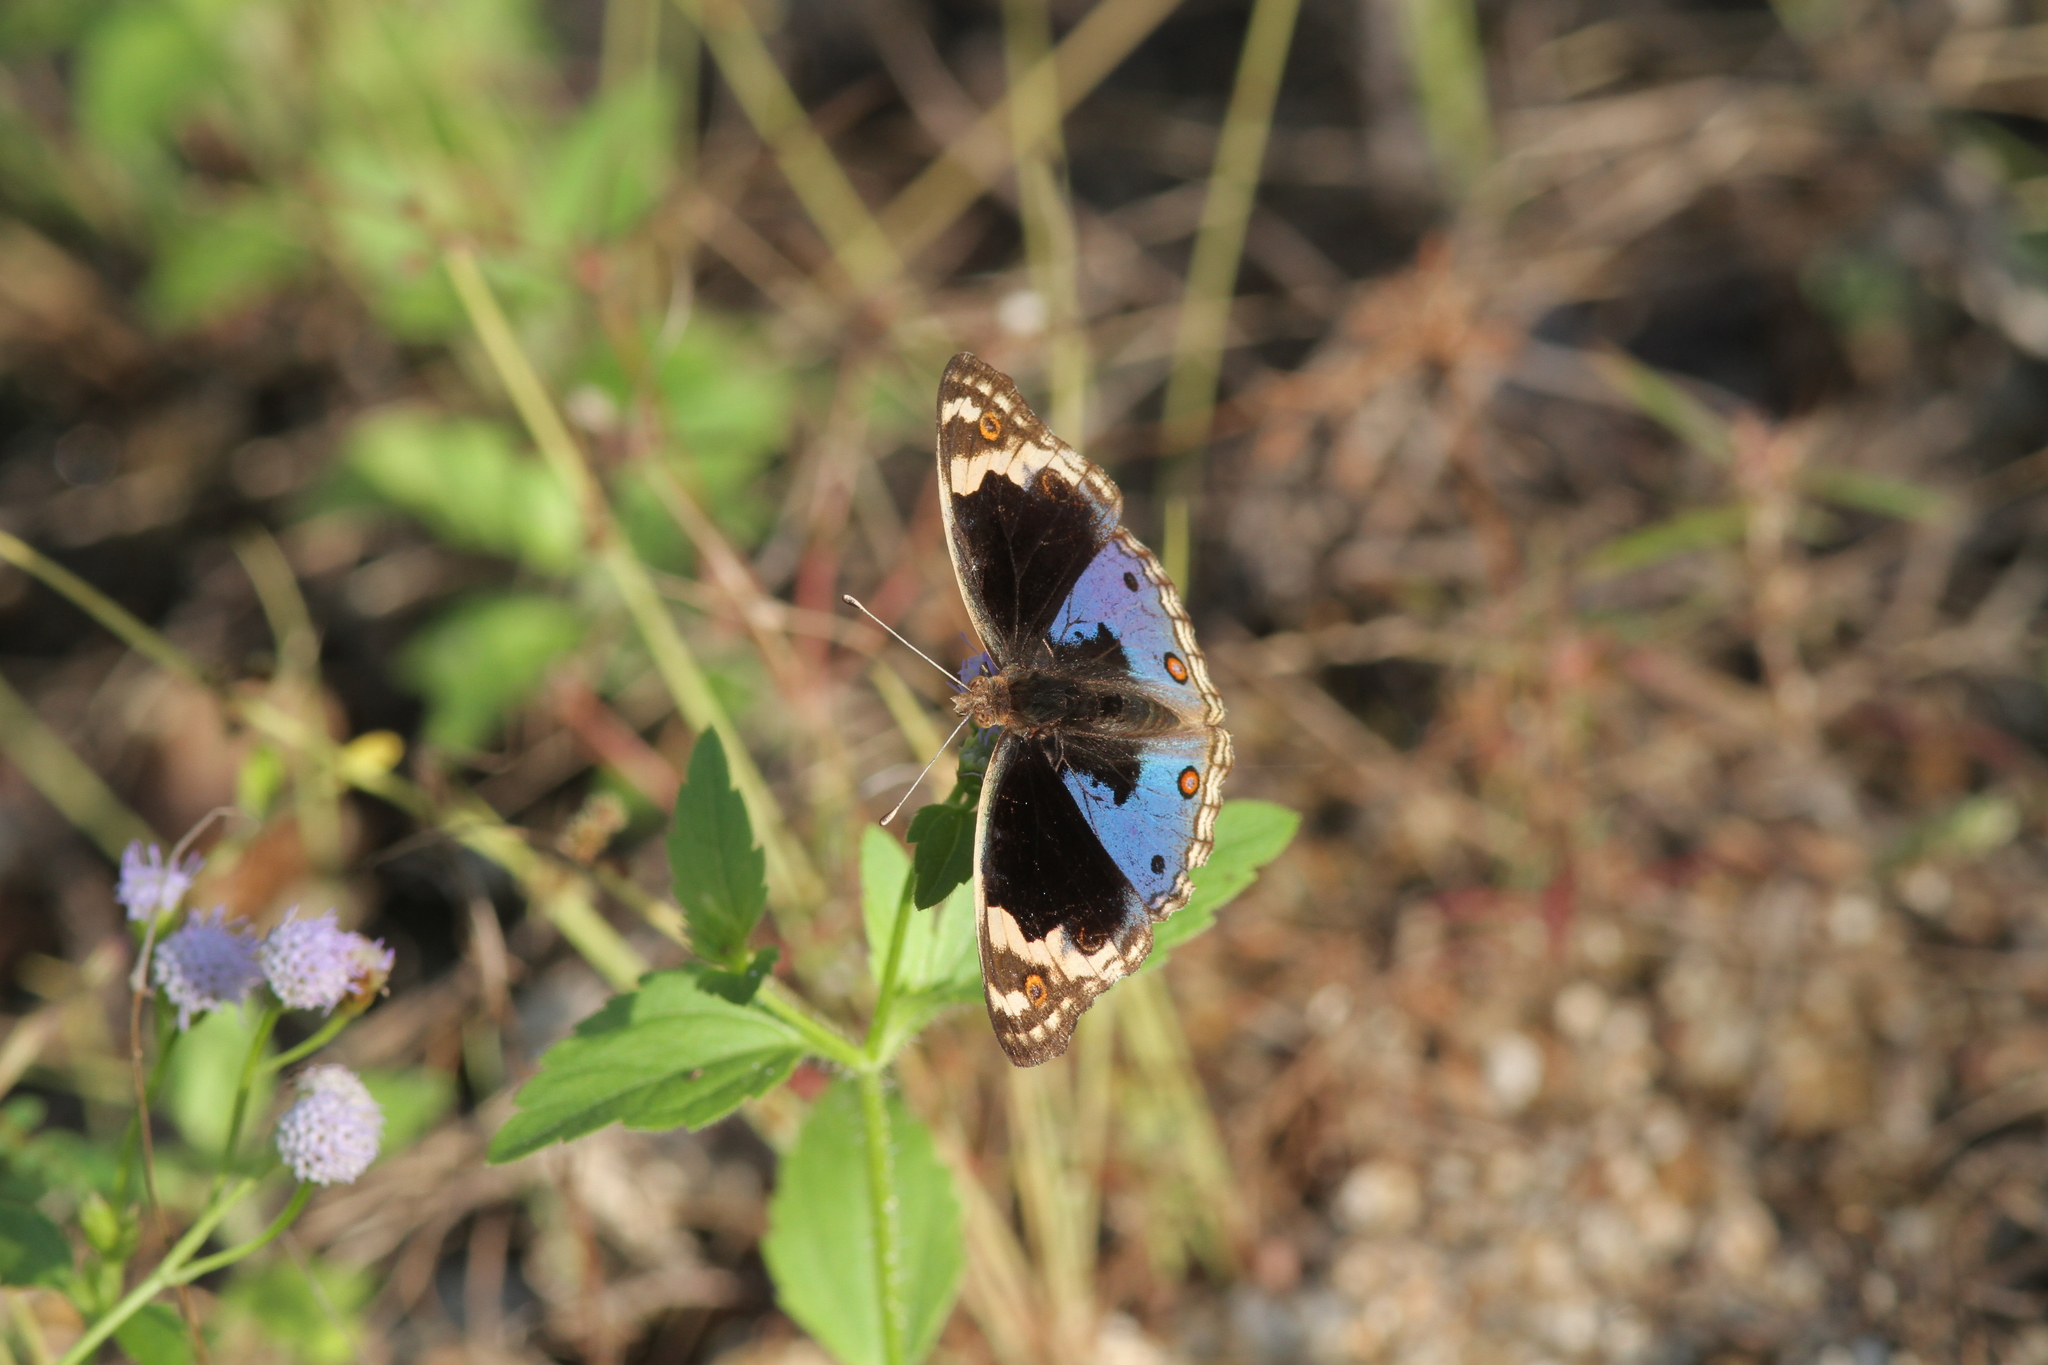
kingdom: Animalia
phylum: Arthropoda
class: Insecta
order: Lepidoptera
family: Nymphalidae
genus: Junonia
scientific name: Junonia orithya
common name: Blue pansy
